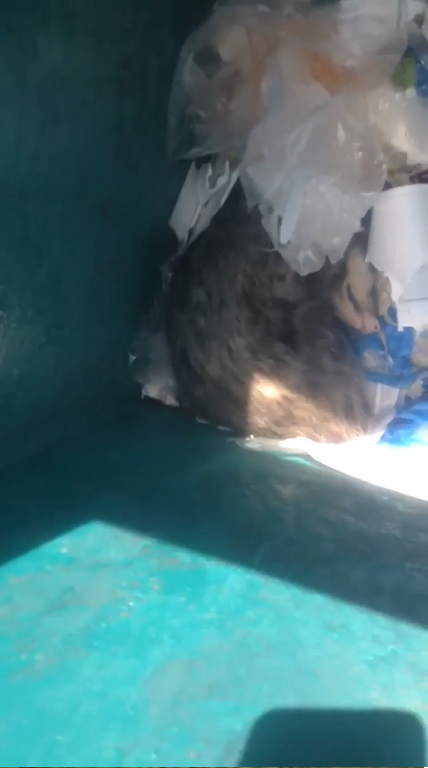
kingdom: Animalia
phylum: Chordata
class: Mammalia
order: Didelphimorphia
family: Didelphidae
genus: Didelphis
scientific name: Didelphis virginiana
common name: Virginia opossum
